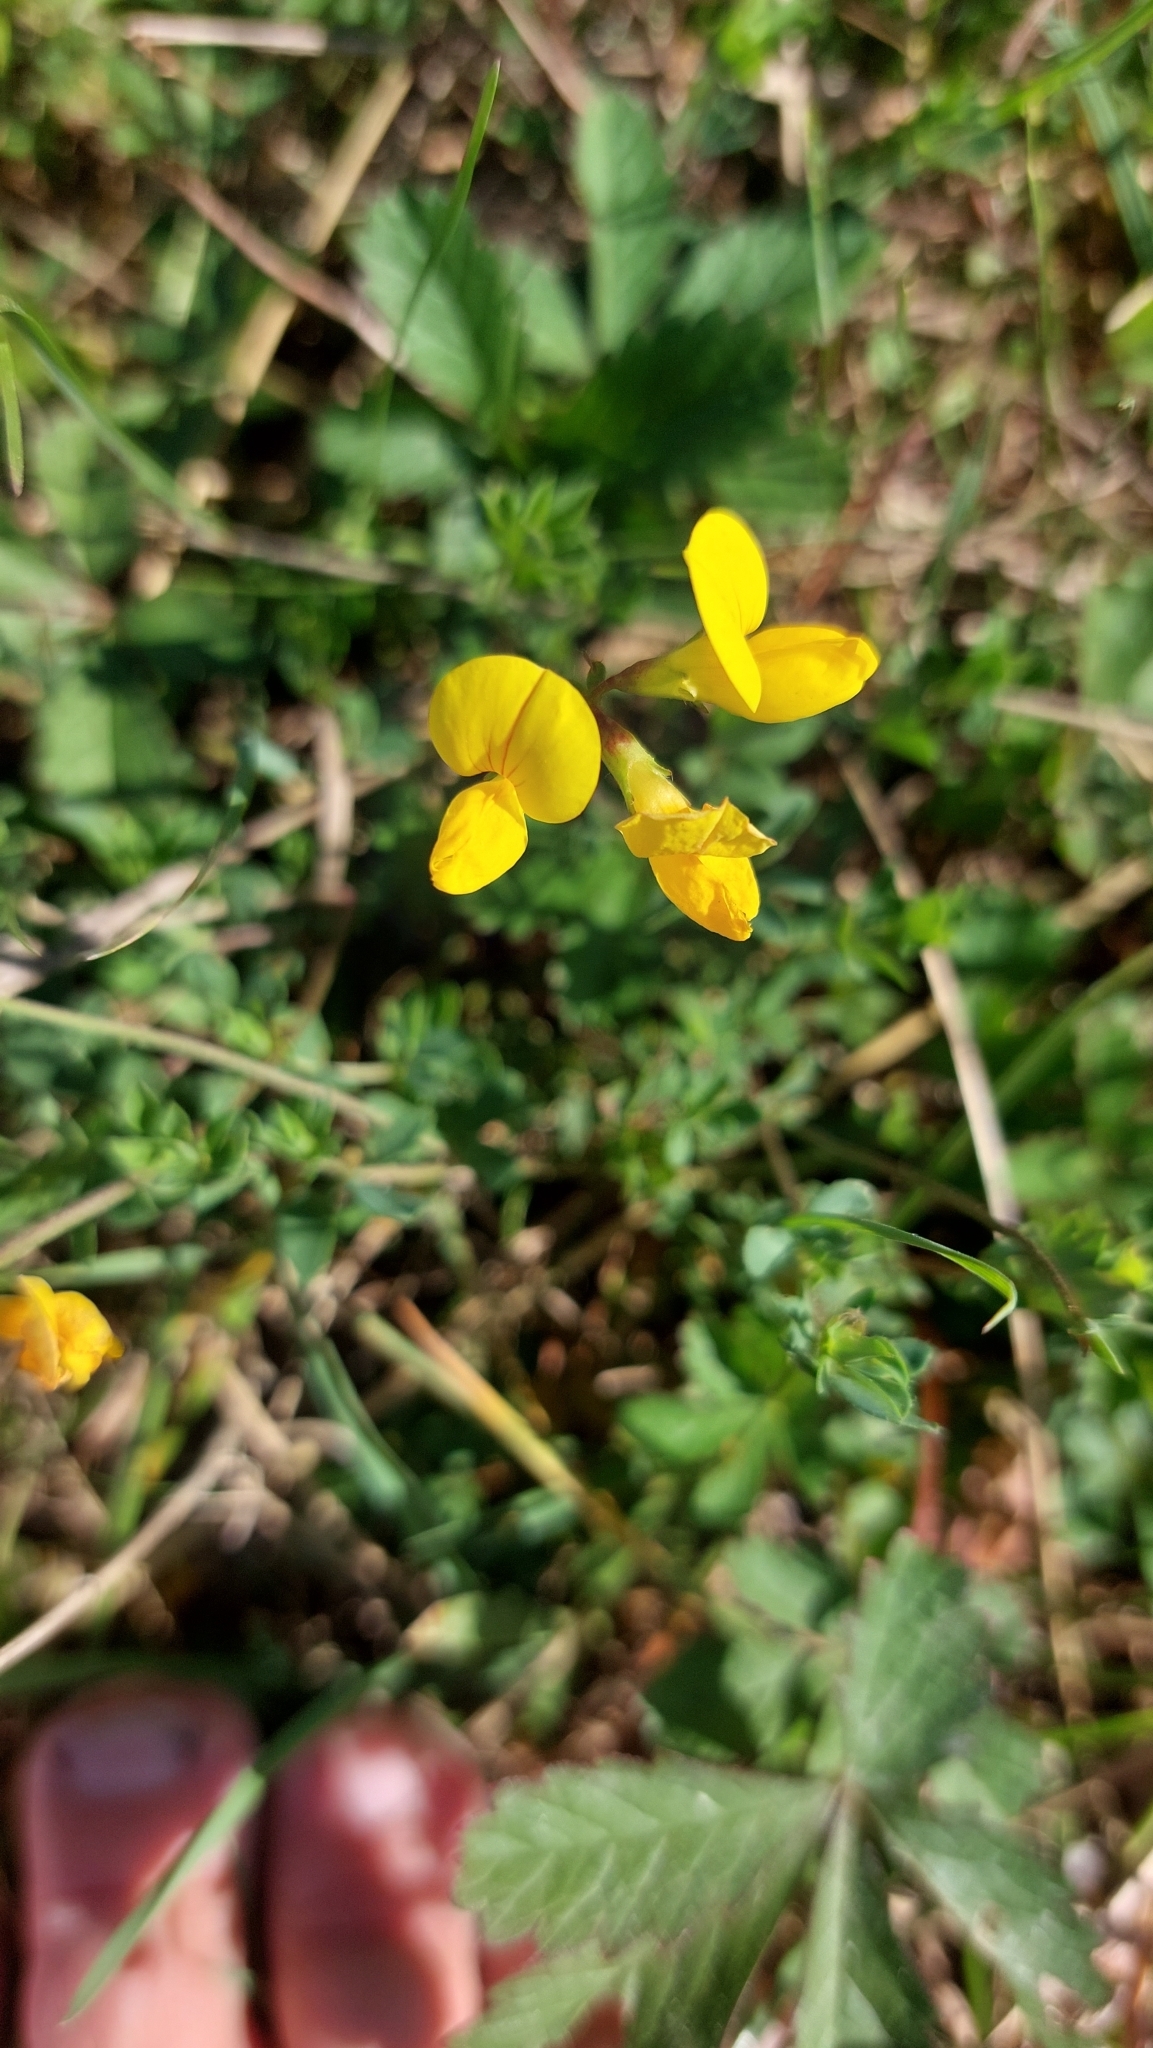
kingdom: Plantae
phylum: Tracheophyta
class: Magnoliopsida
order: Fabales
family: Fabaceae
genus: Lotus
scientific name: Lotus corniculatus
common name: Common bird's-foot-trefoil
